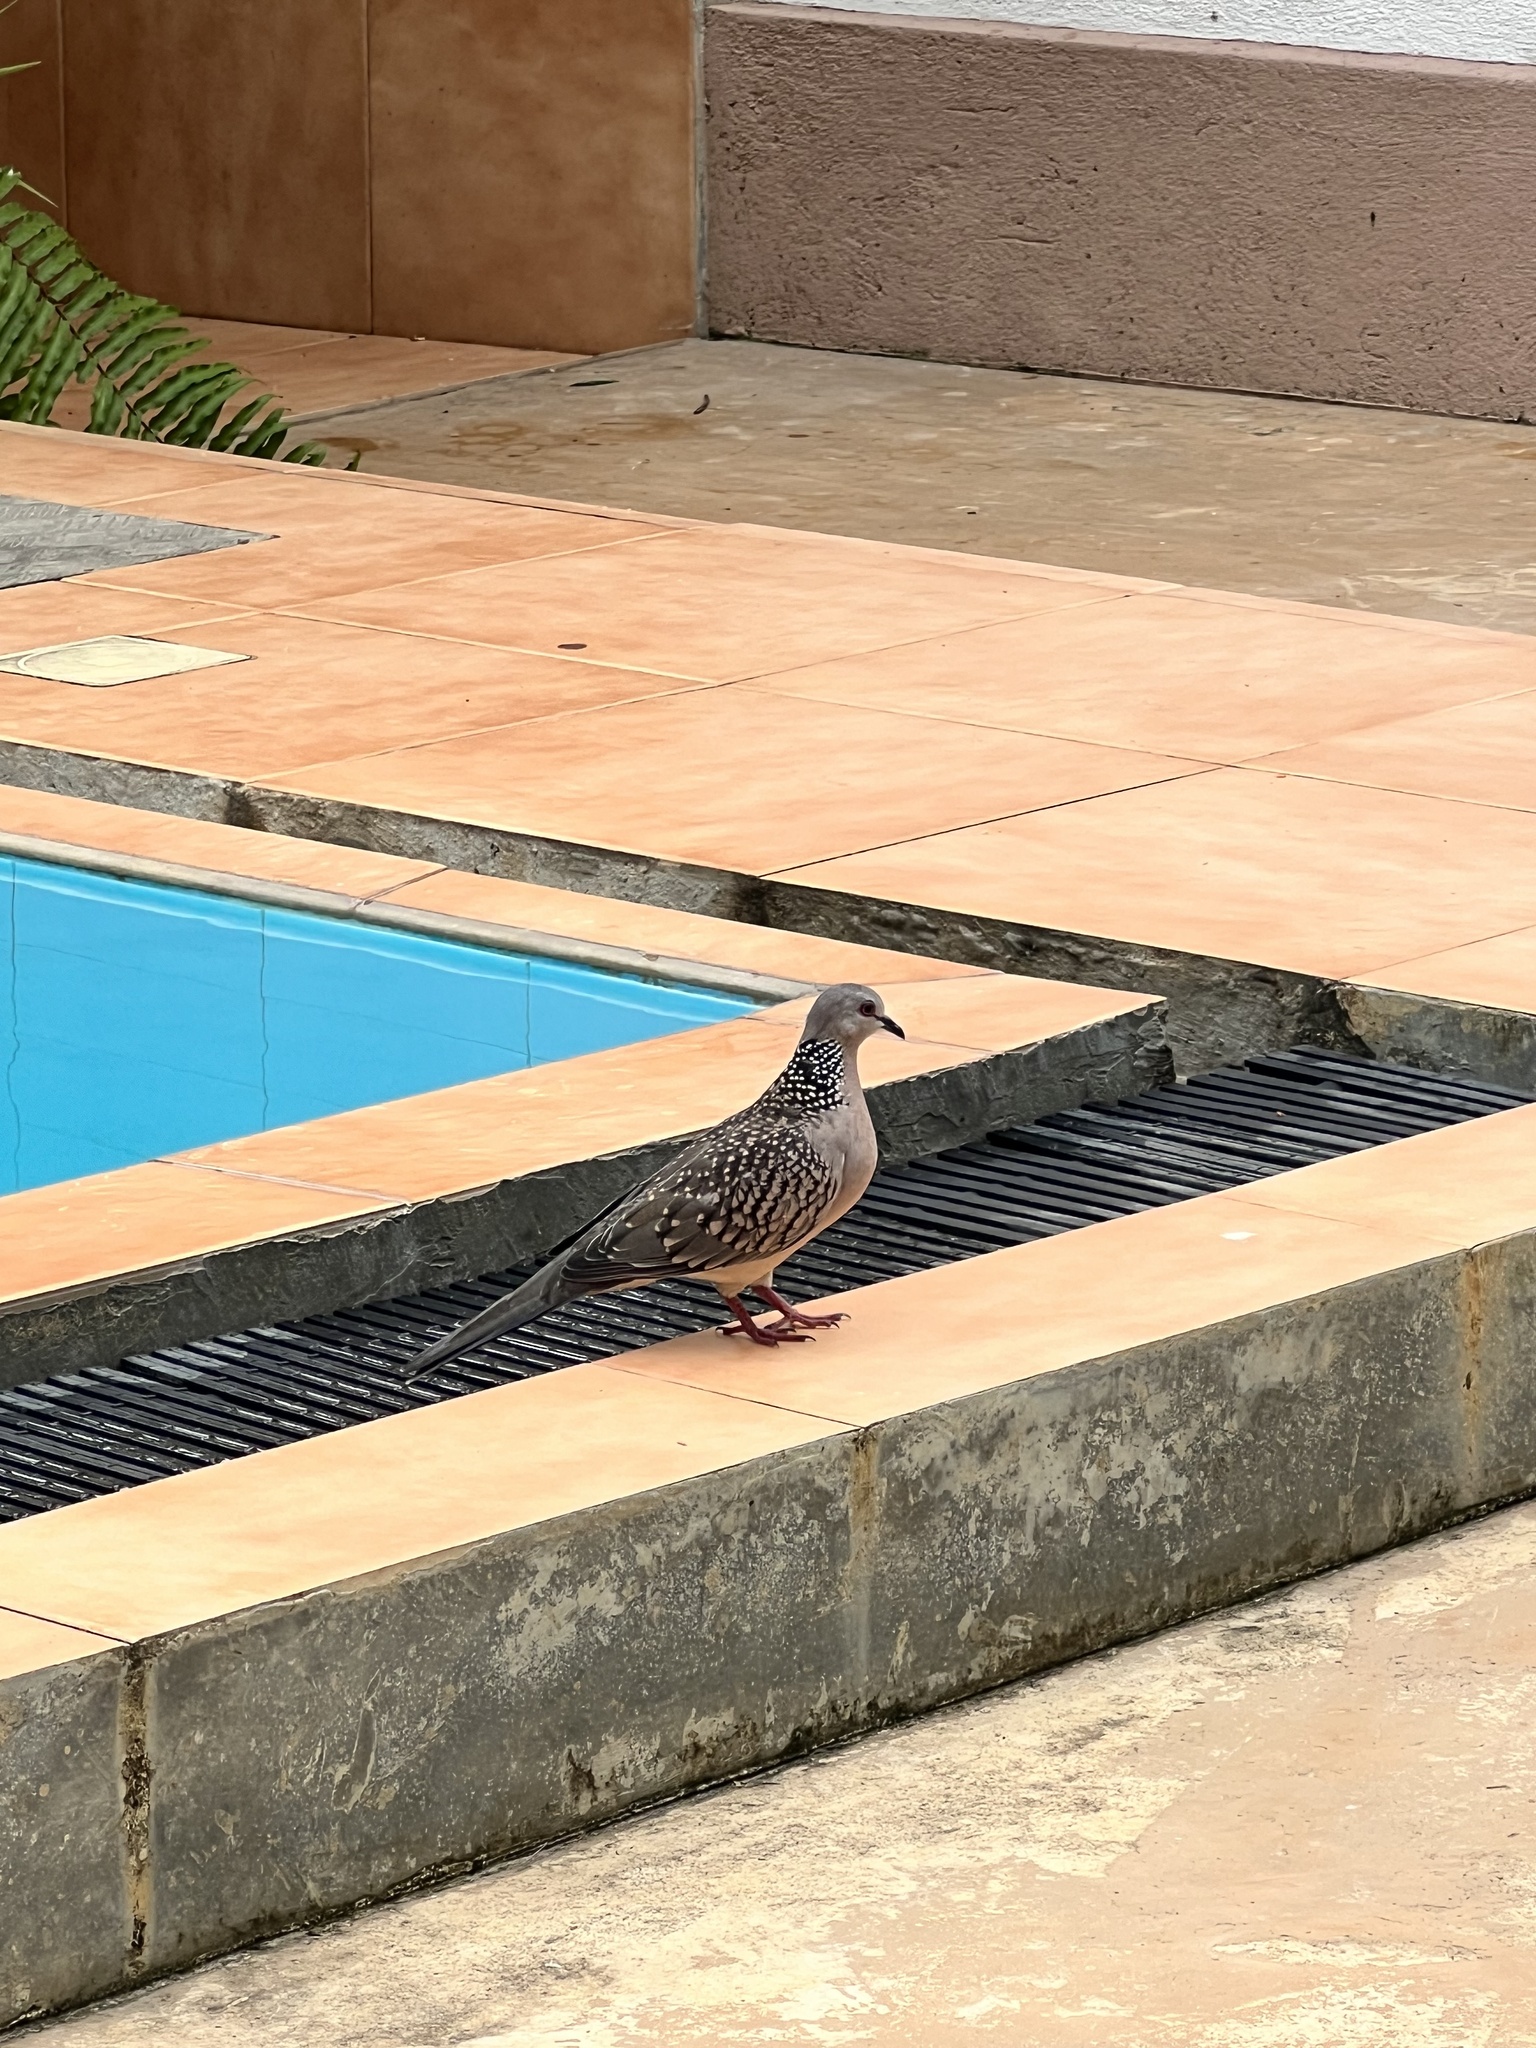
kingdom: Animalia
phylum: Chordata
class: Aves
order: Columbiformes
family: Columbidae
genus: Spilopelia
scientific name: Spilopelia chinensis
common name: Spotted dove
